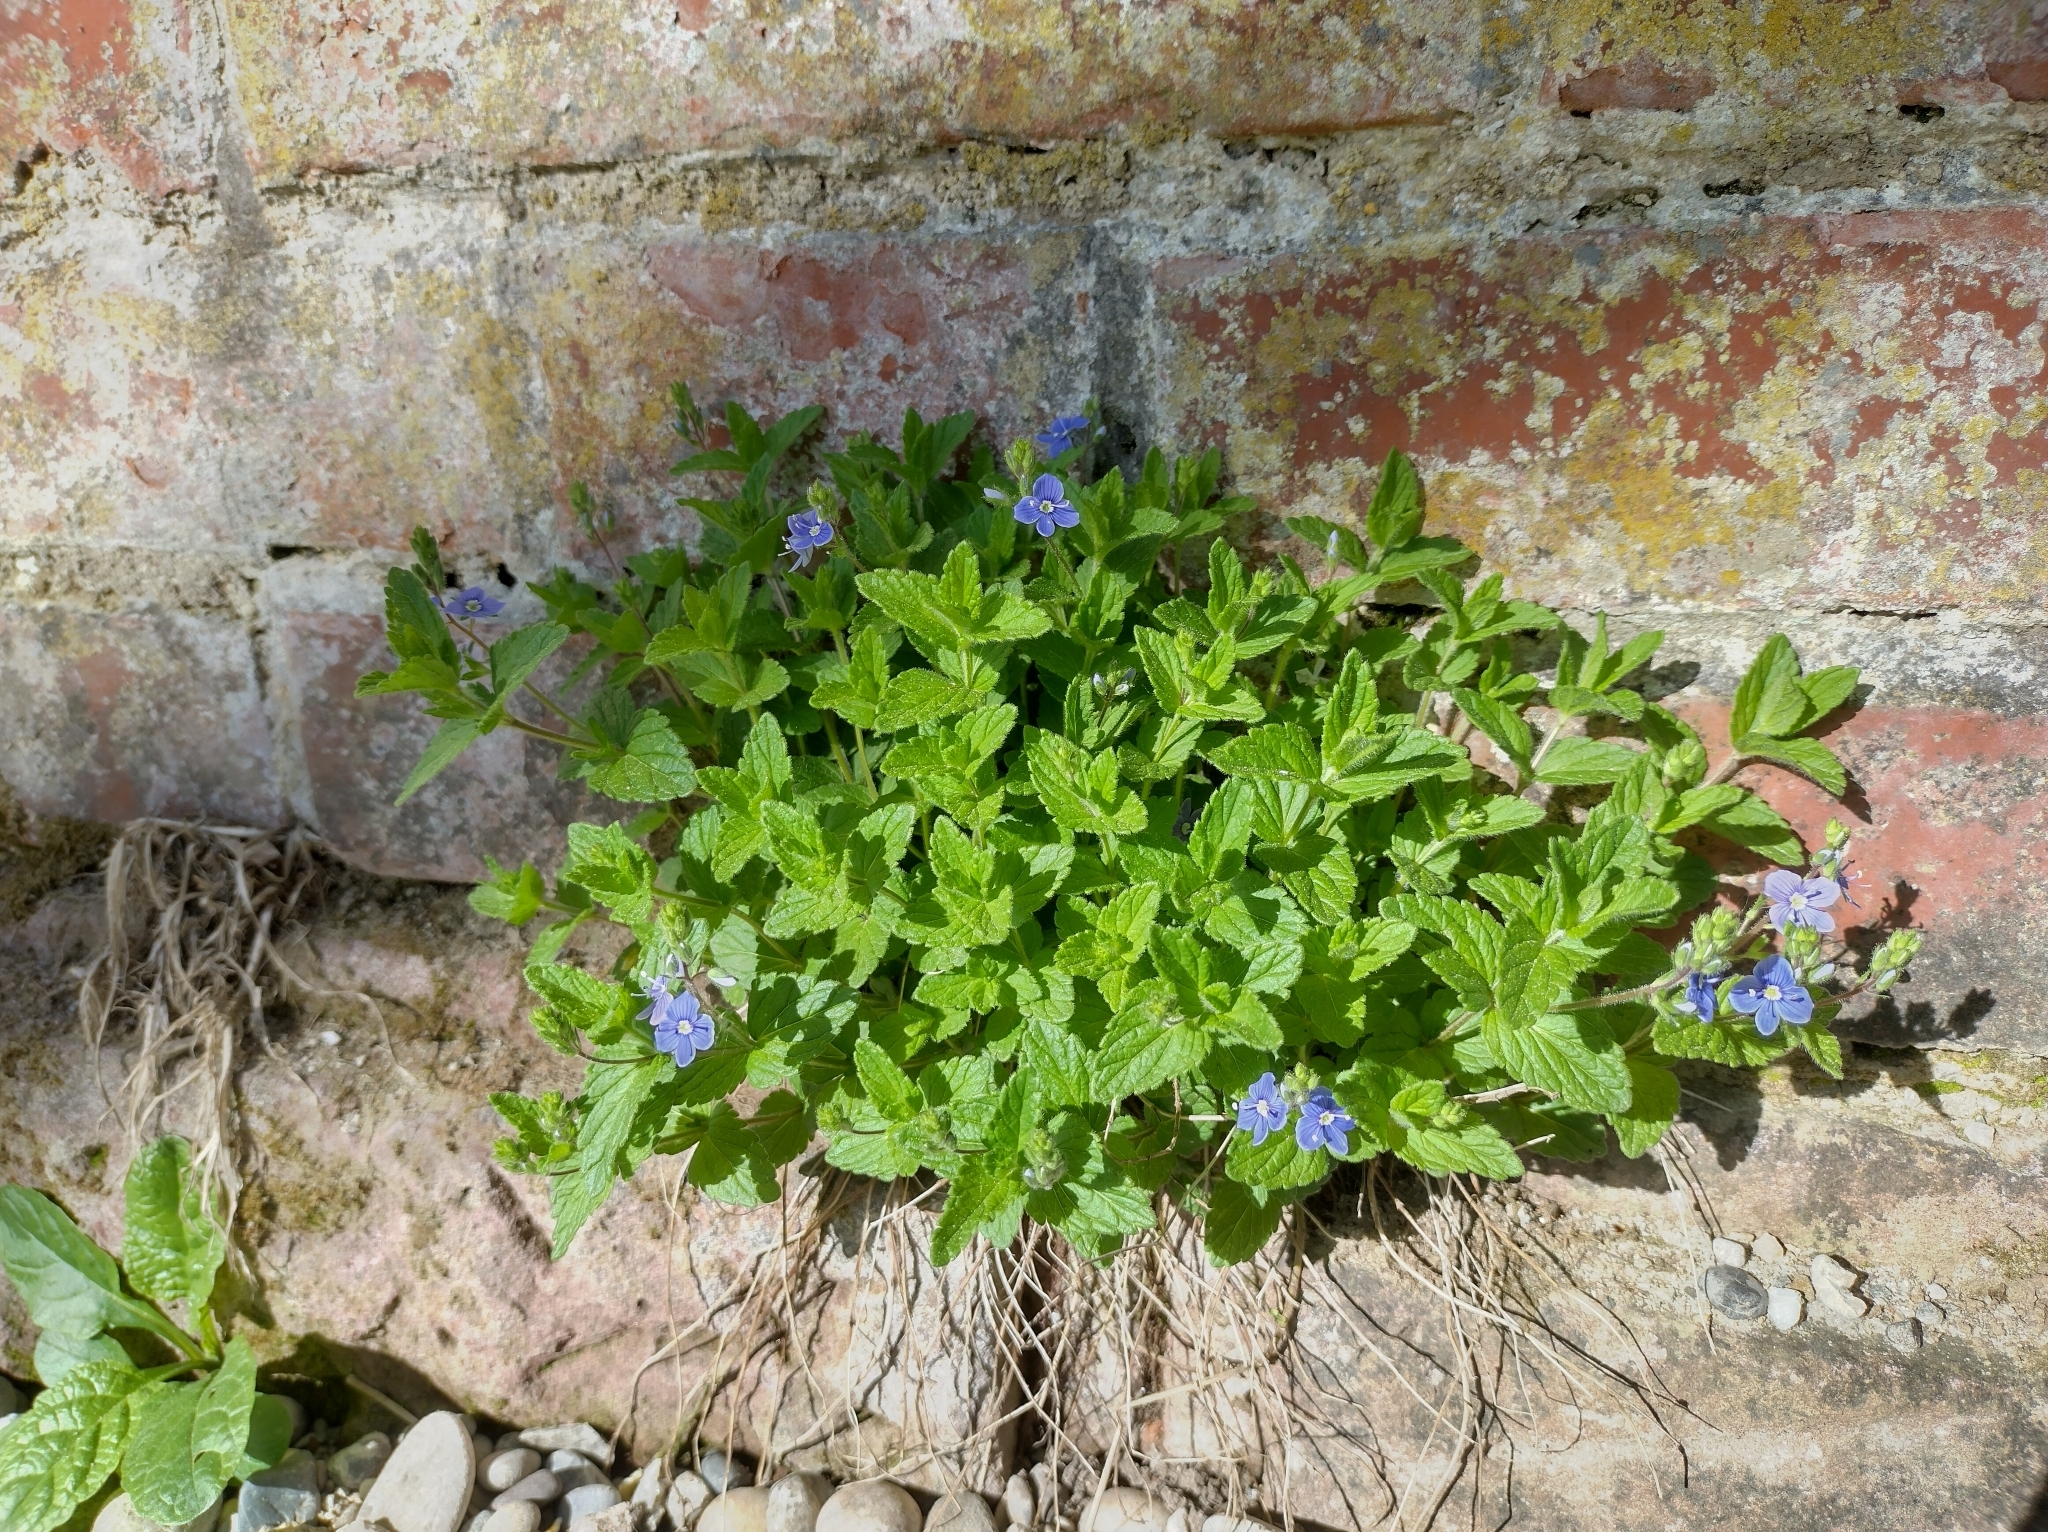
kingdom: Plantae
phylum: Tracheophyta
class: Magnoliopsida
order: Lamiales
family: Plantaginaceae
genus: Veronica
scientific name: Veronica chamaedrys
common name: Germander speedwell
